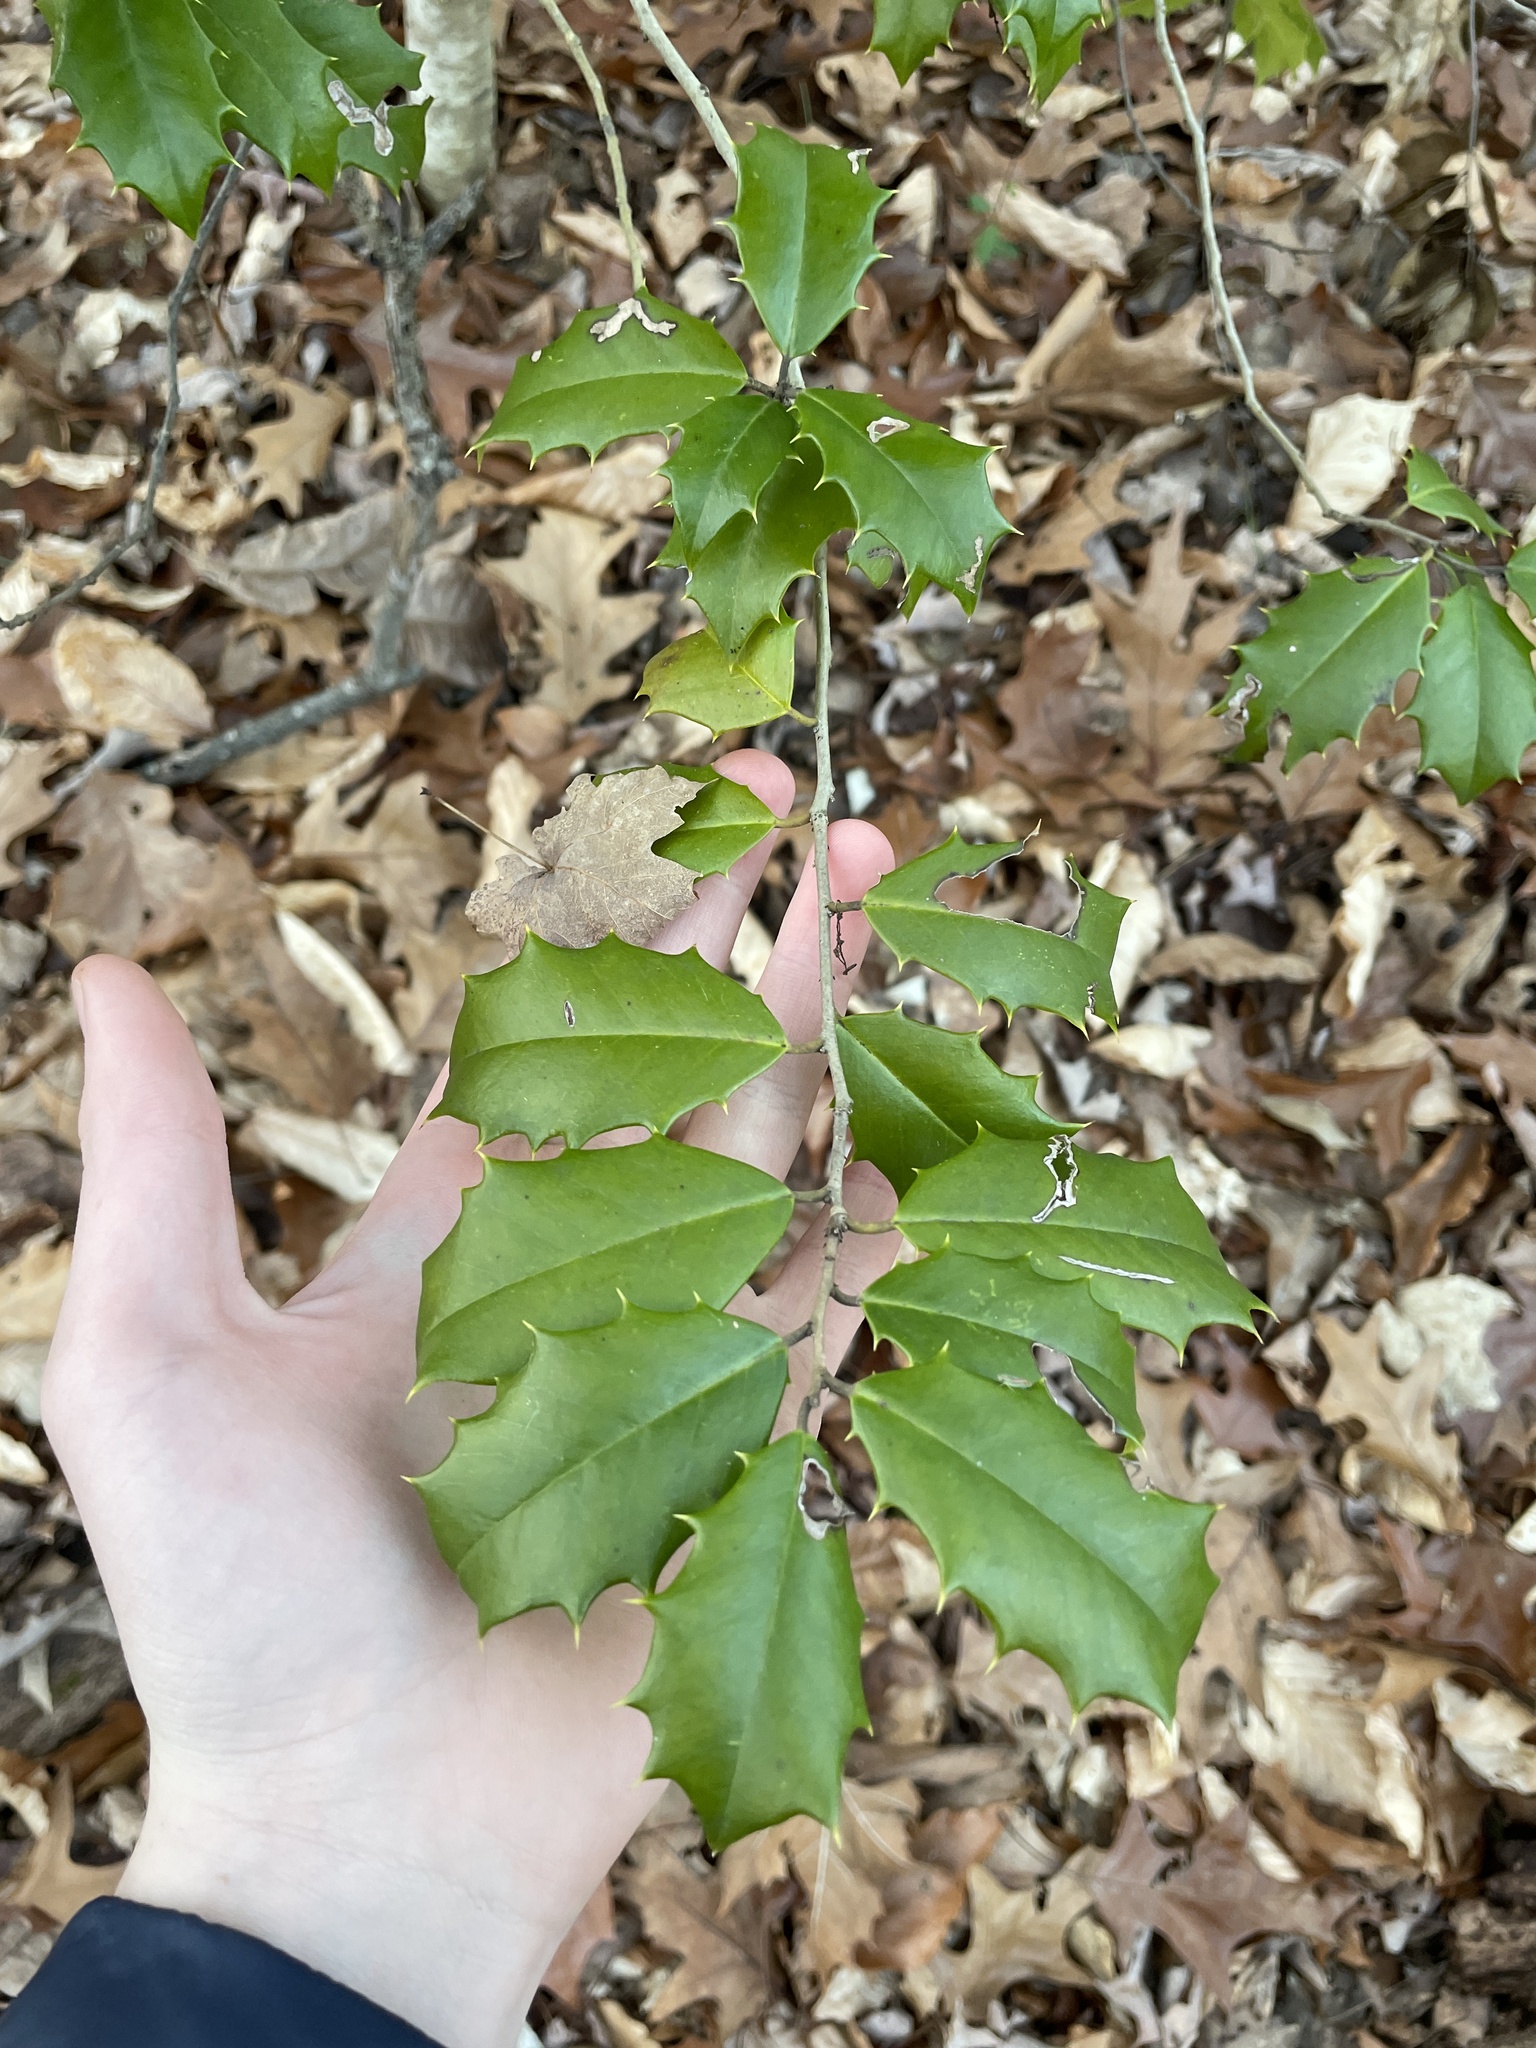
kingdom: Plantae
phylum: Tracheophyta
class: Magnoliopsida
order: Aquifoliales
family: Aquifoliaceae
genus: Ilex
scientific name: Ilex opaca
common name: American holly
